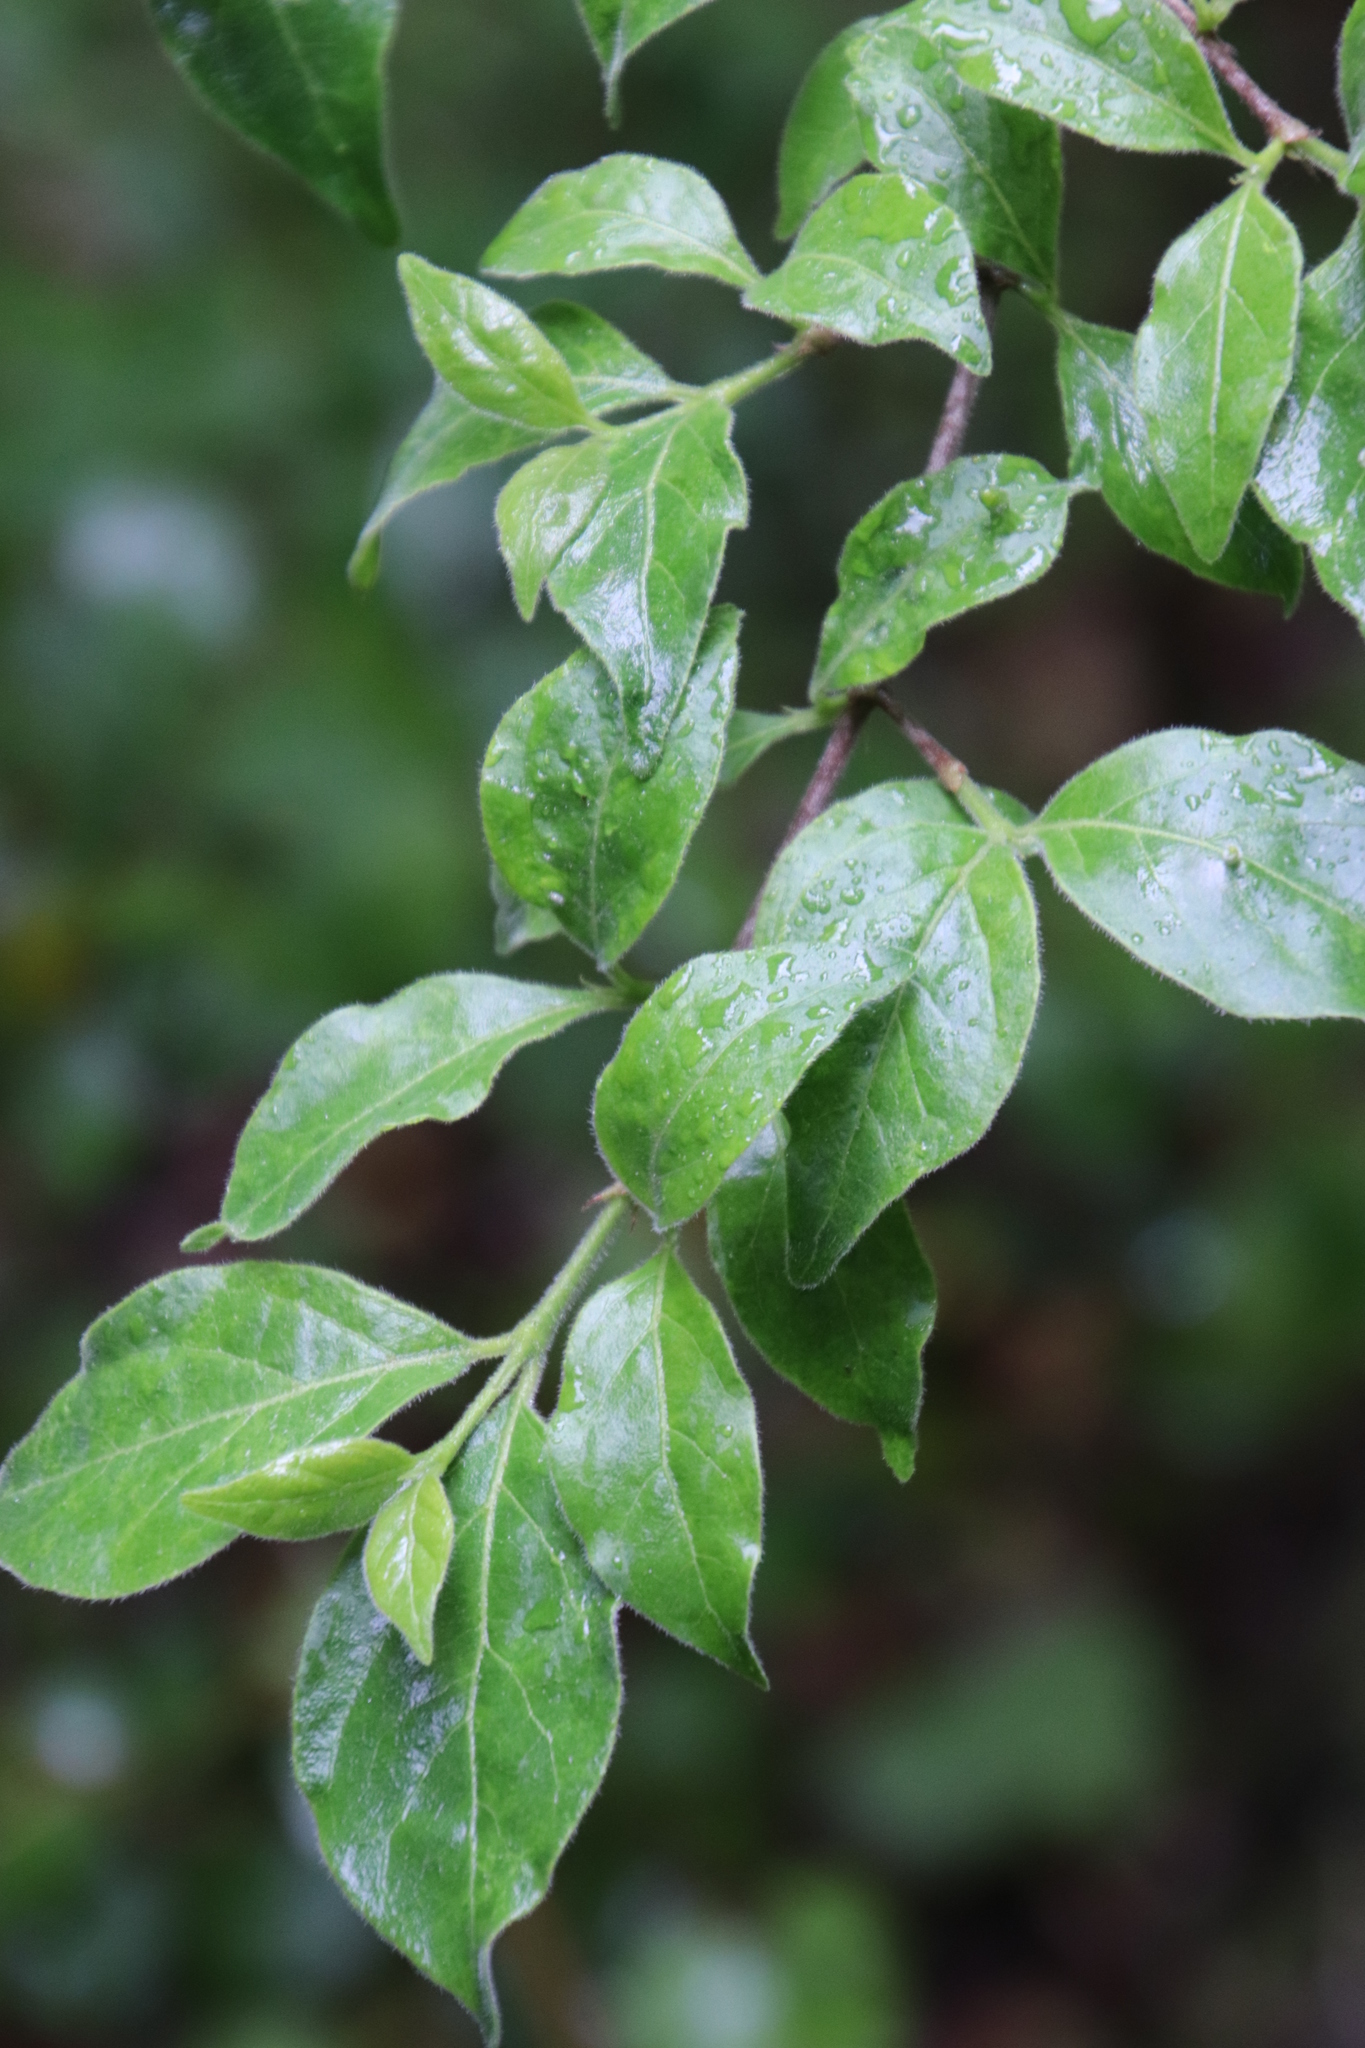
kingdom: Plantae
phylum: Tracheophyta
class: Magnoliopsida
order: Gentianales
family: Rubiaceae
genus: Afrocanthium
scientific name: Afrocanthium mundianum
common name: Rock-alder
